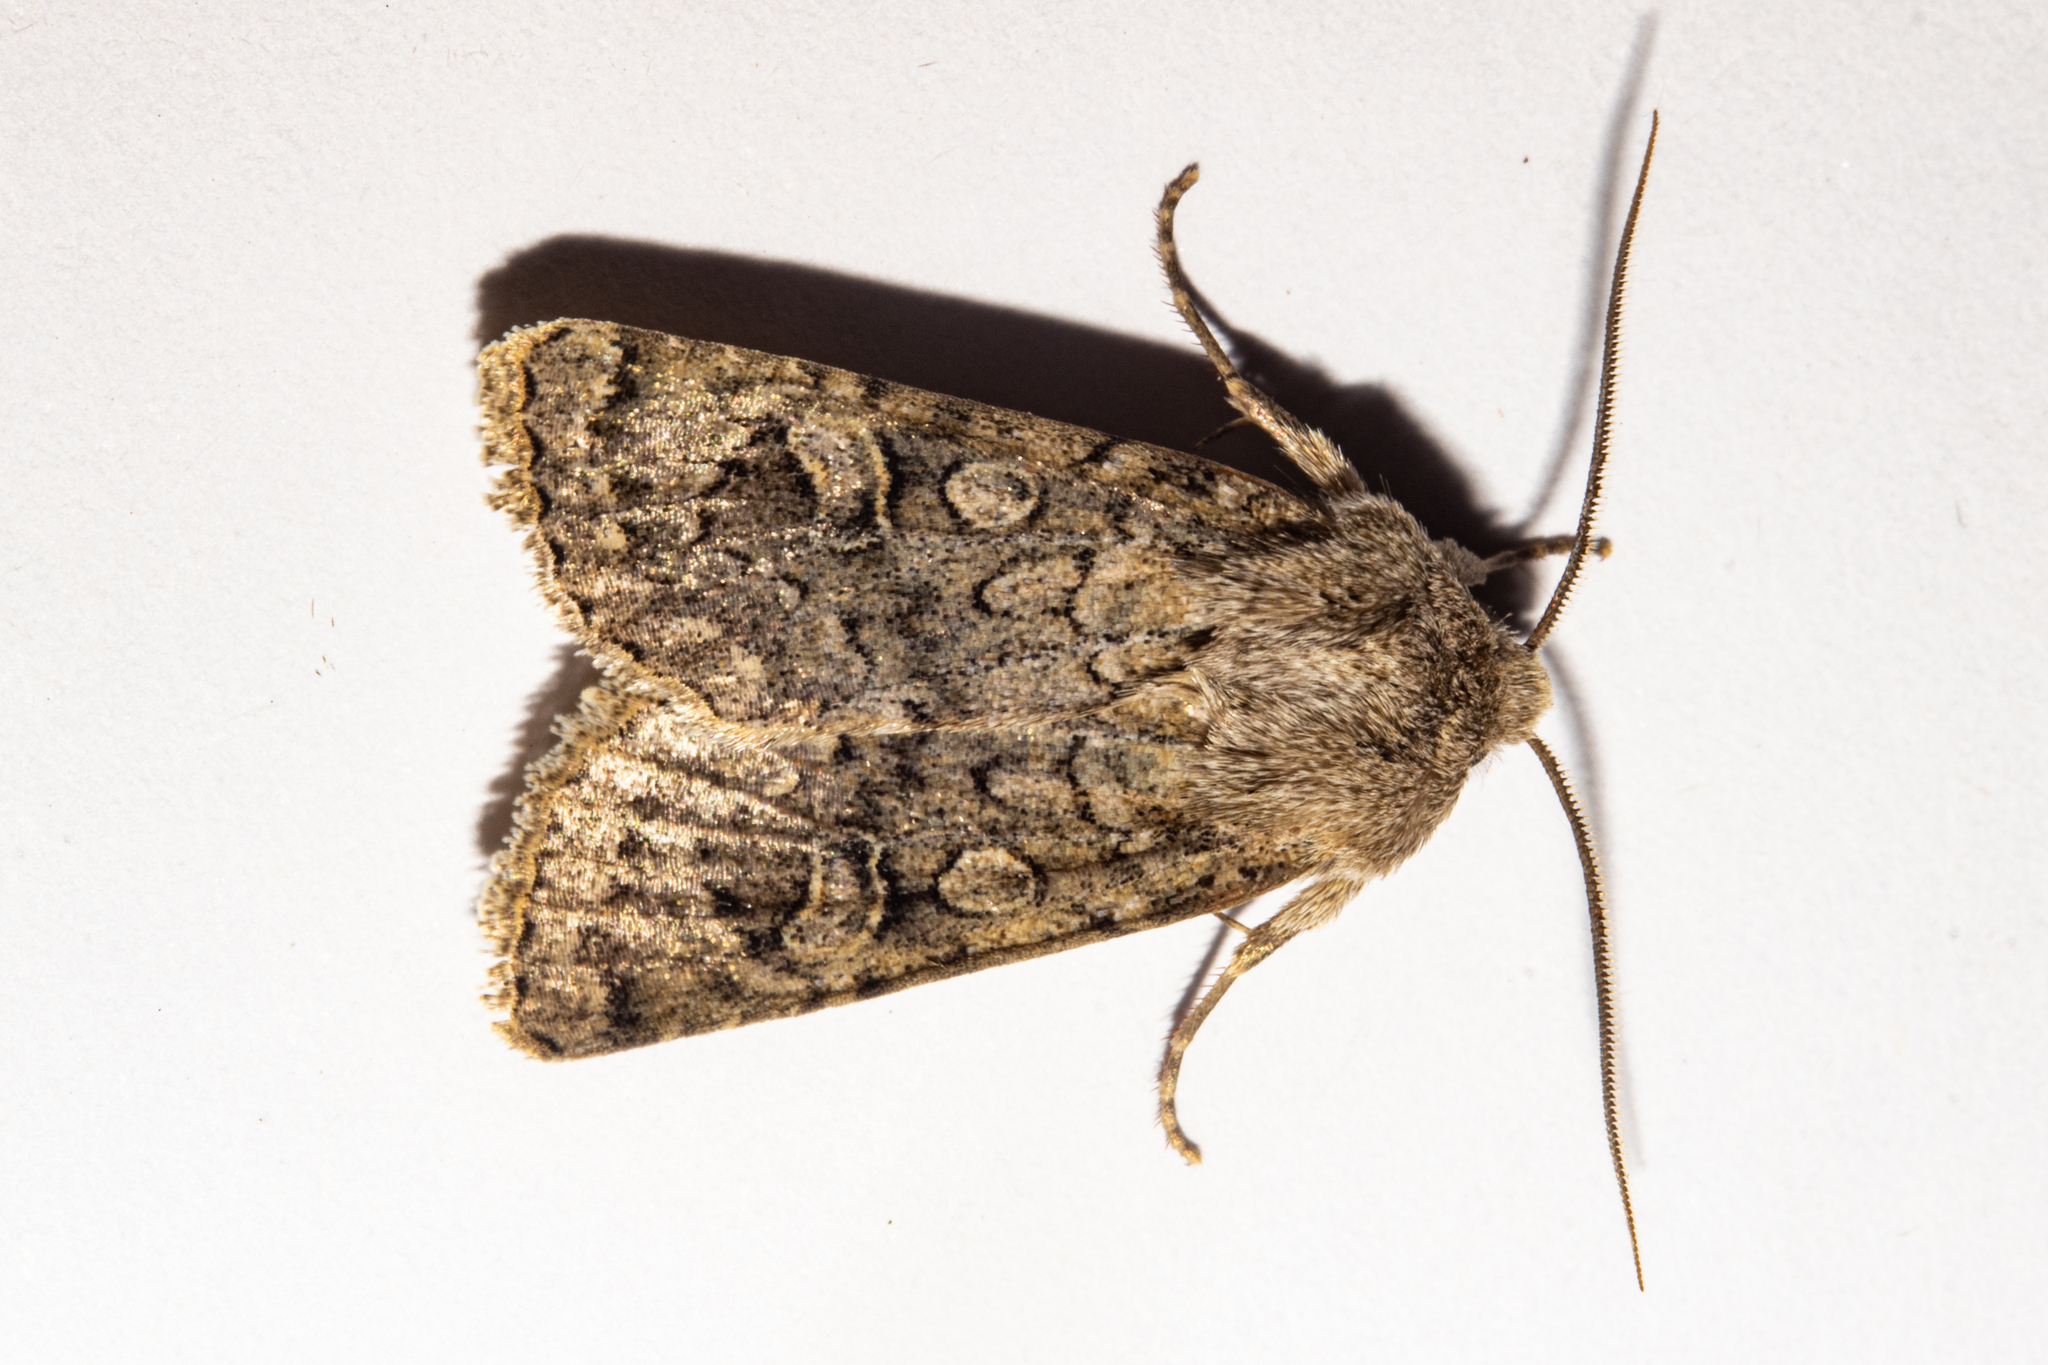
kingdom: Animalia
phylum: Arthropoda
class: Insecta
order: Lepidoptera
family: Noctuidae
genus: Ichneutica
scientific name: Ichneutica
